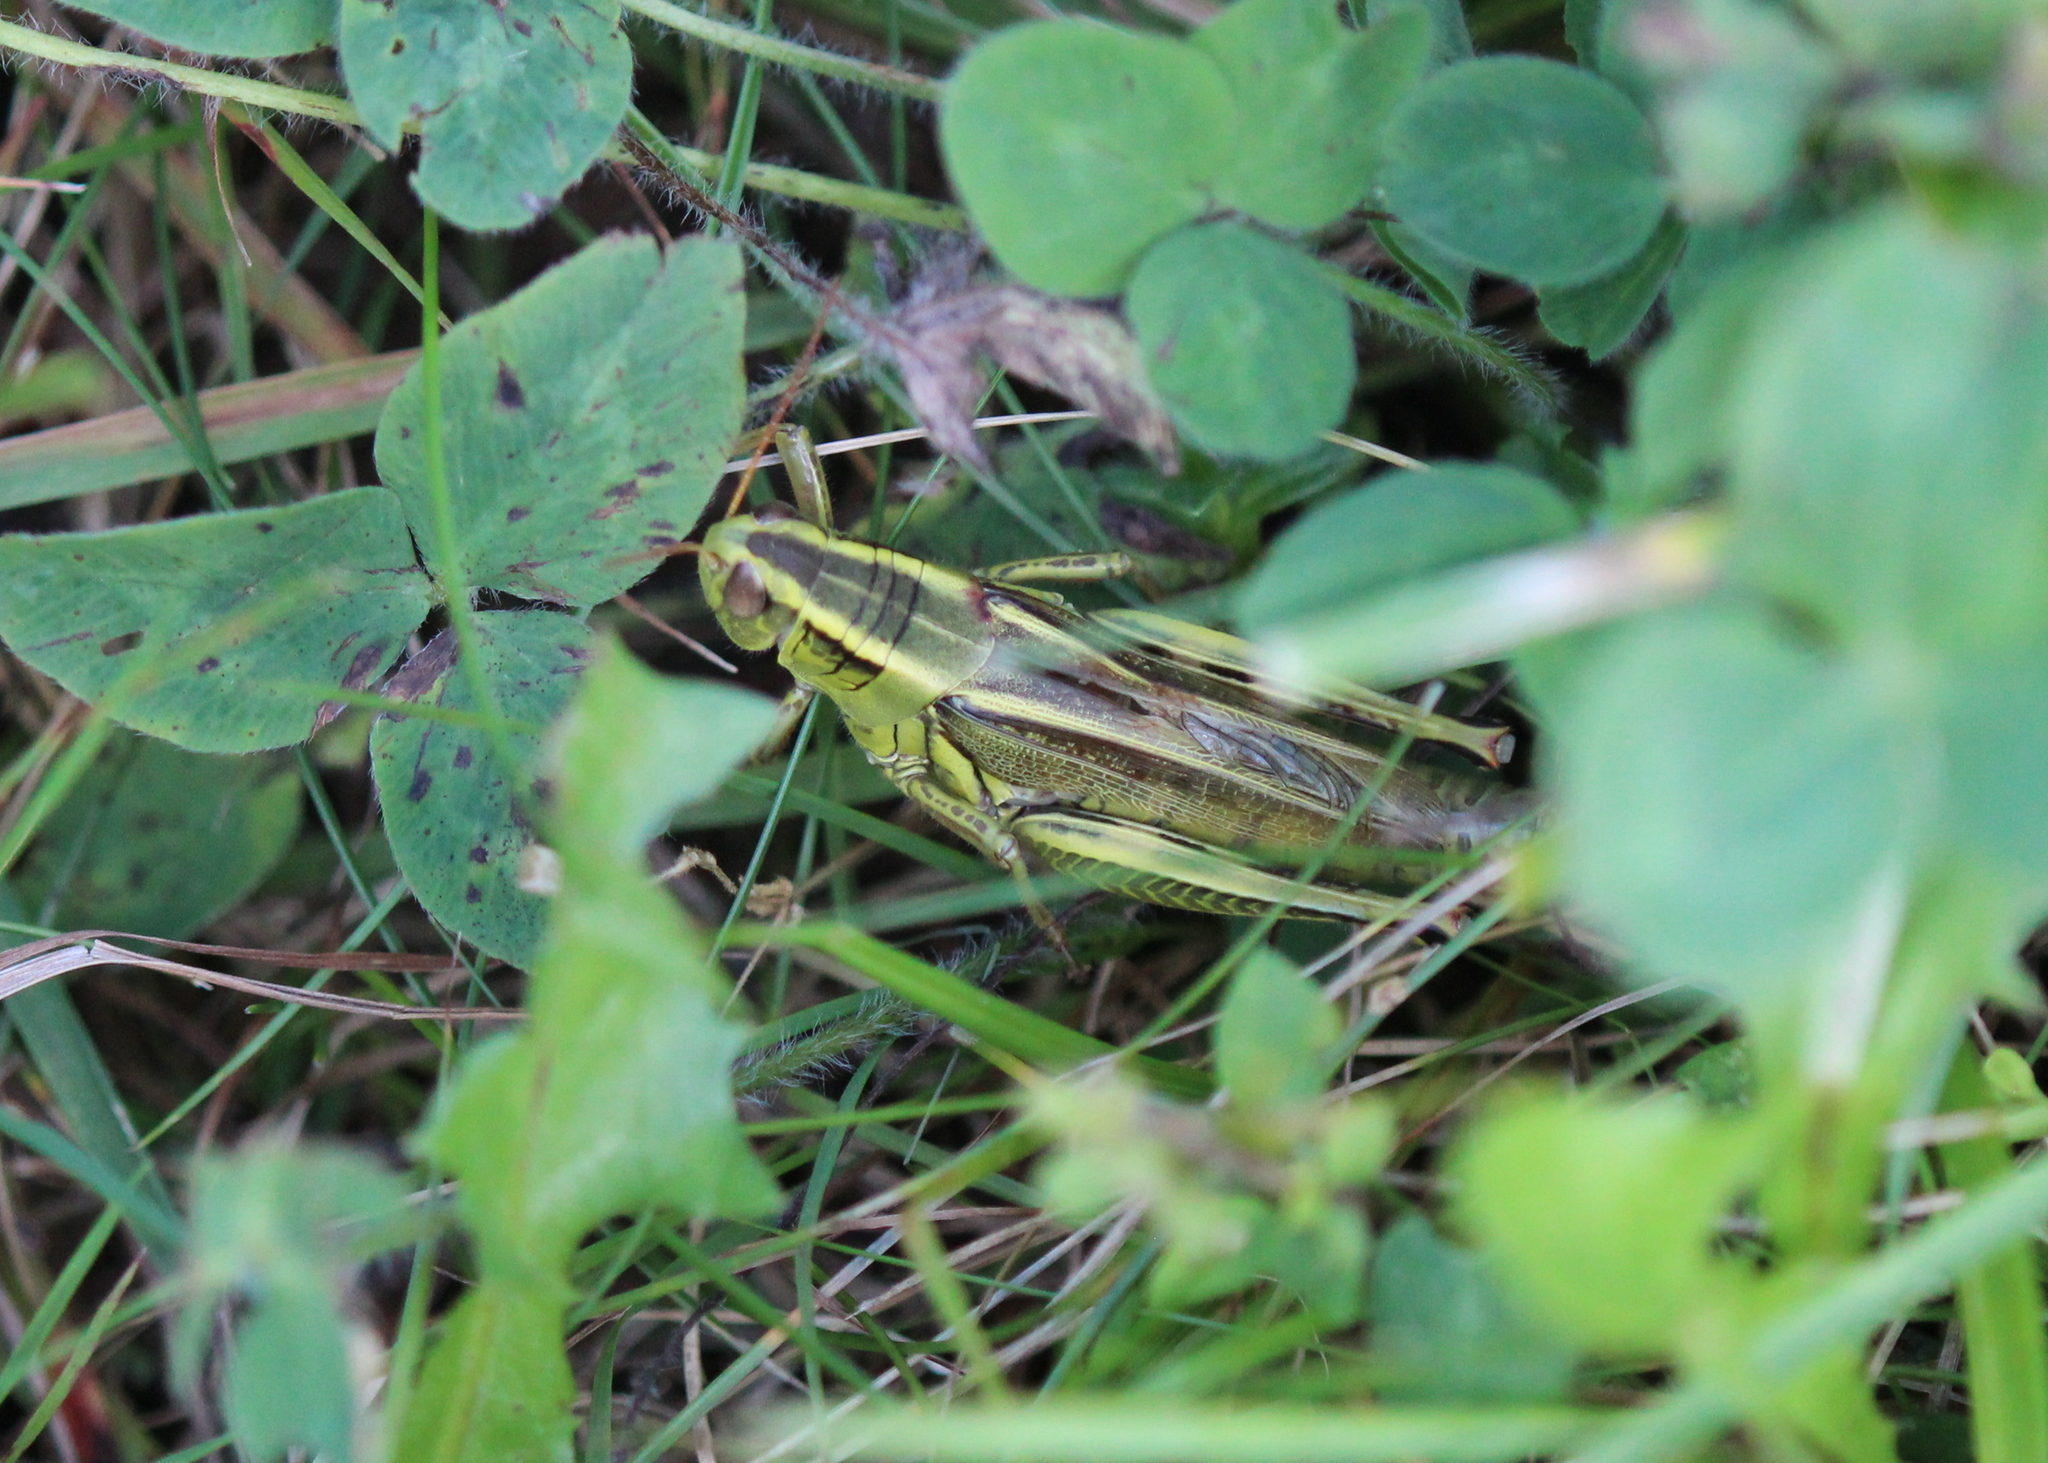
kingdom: Animalia
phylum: Arthropoda
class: Insecta
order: Orthoptera
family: Acrididae
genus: Melanoplus
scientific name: Melanoplus bivittatus
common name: Two-striped grasshopper
